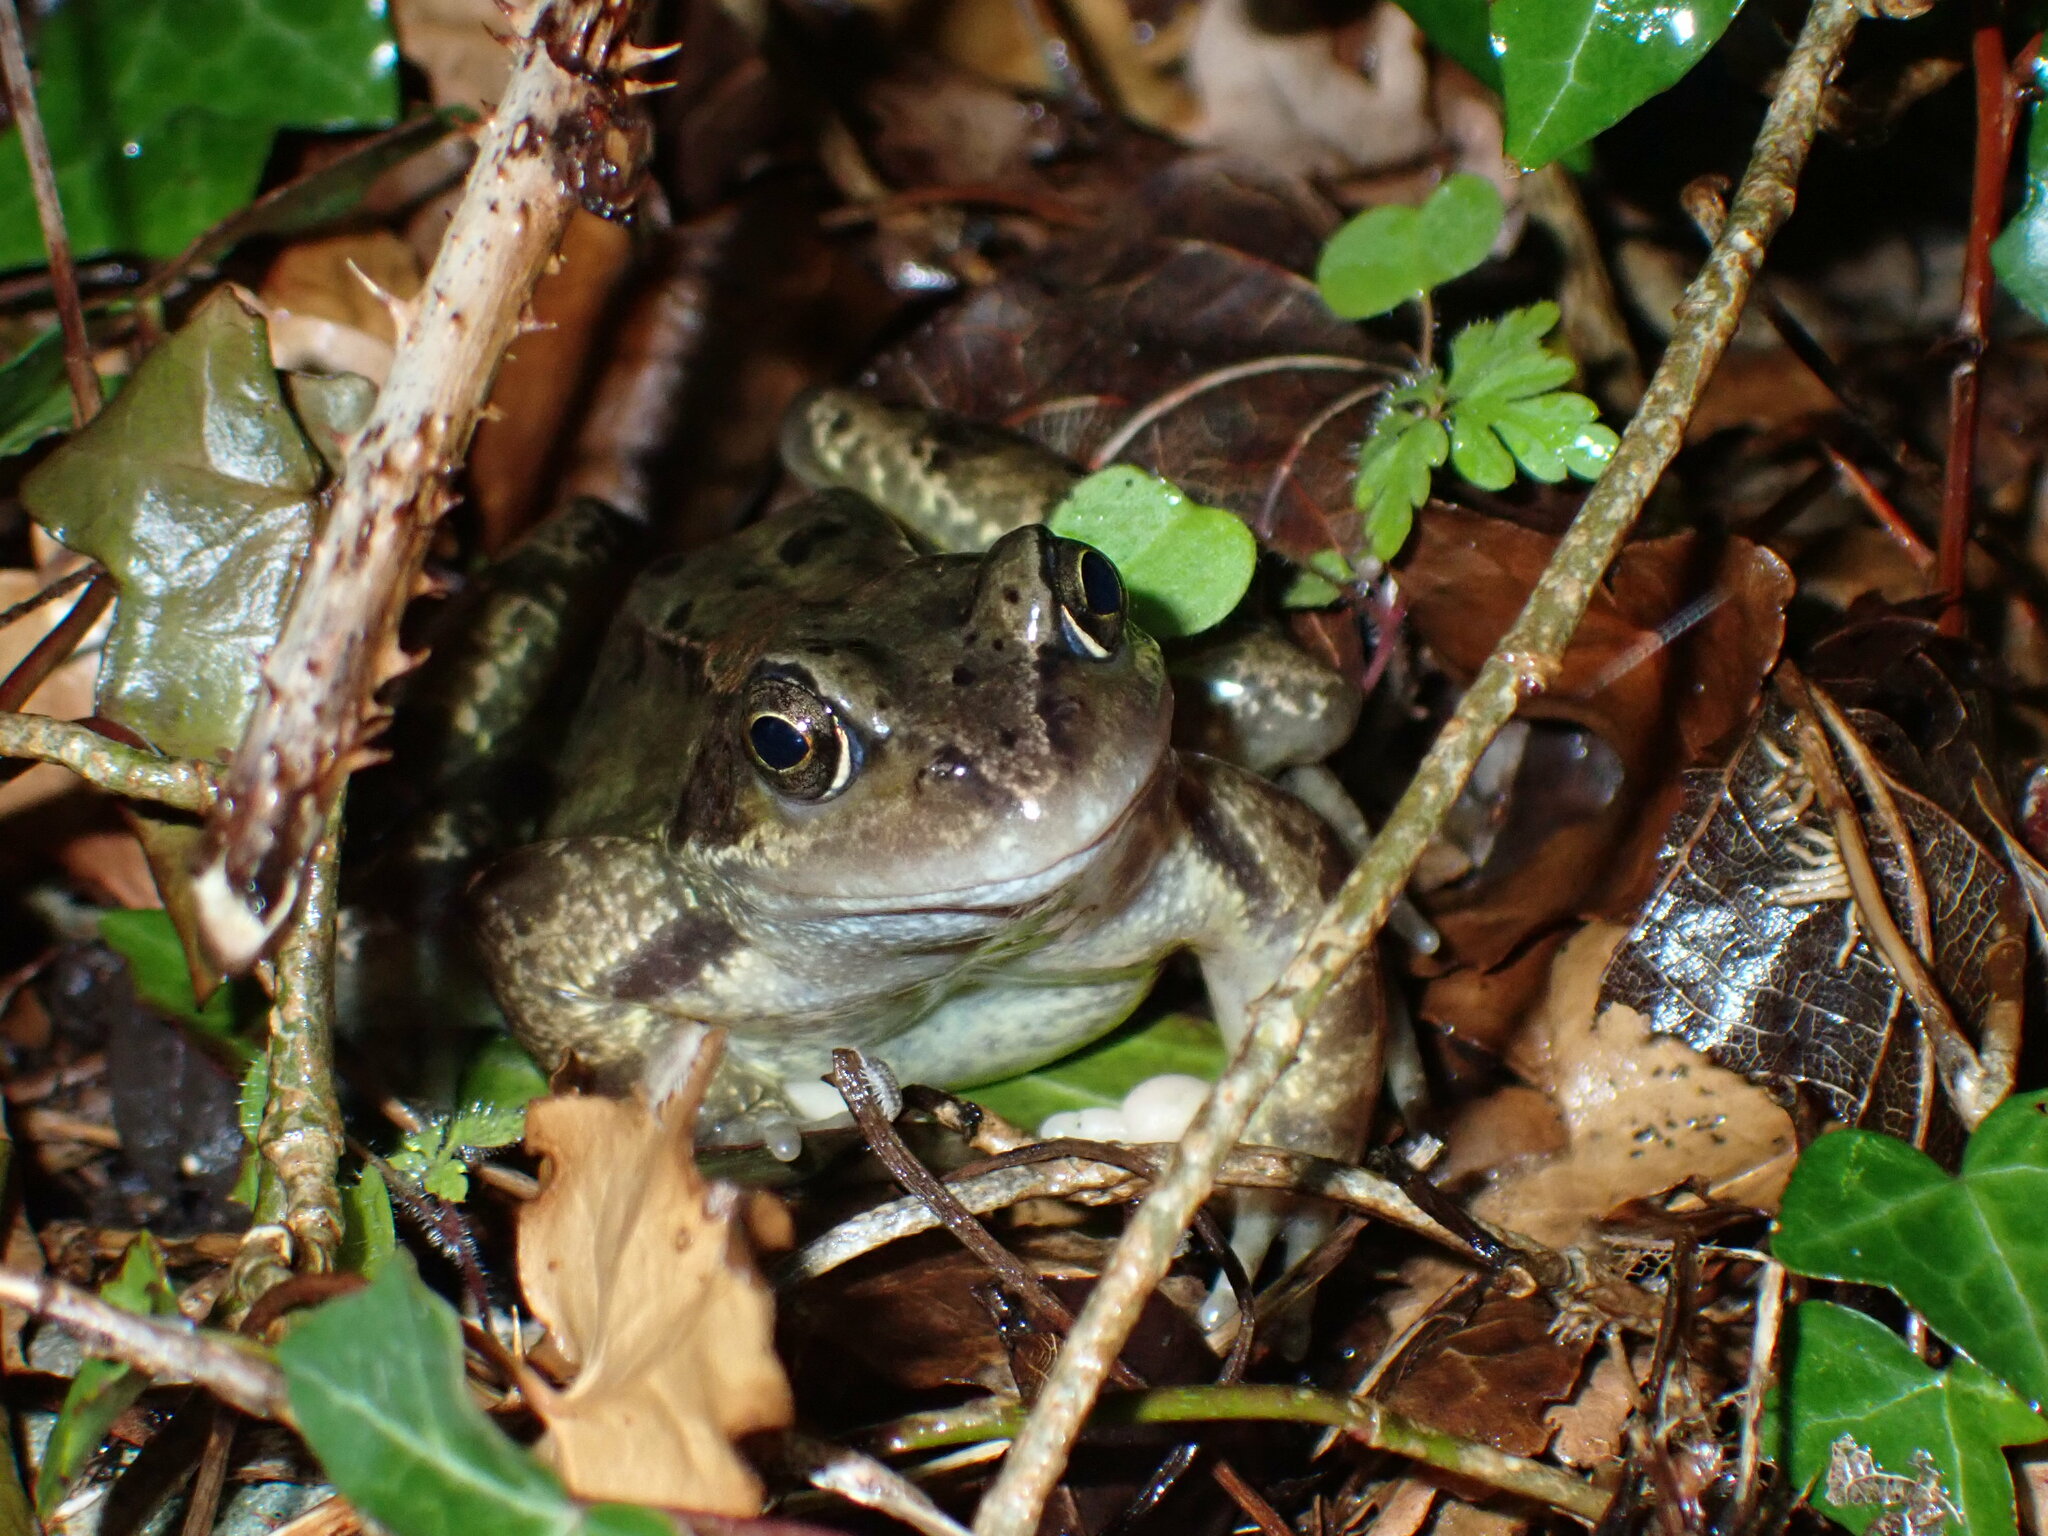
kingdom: Animalia
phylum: Chordata
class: Amphibia
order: Anura
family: Ranidae
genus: Rana
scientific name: Rana temporaria
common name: Common frog
